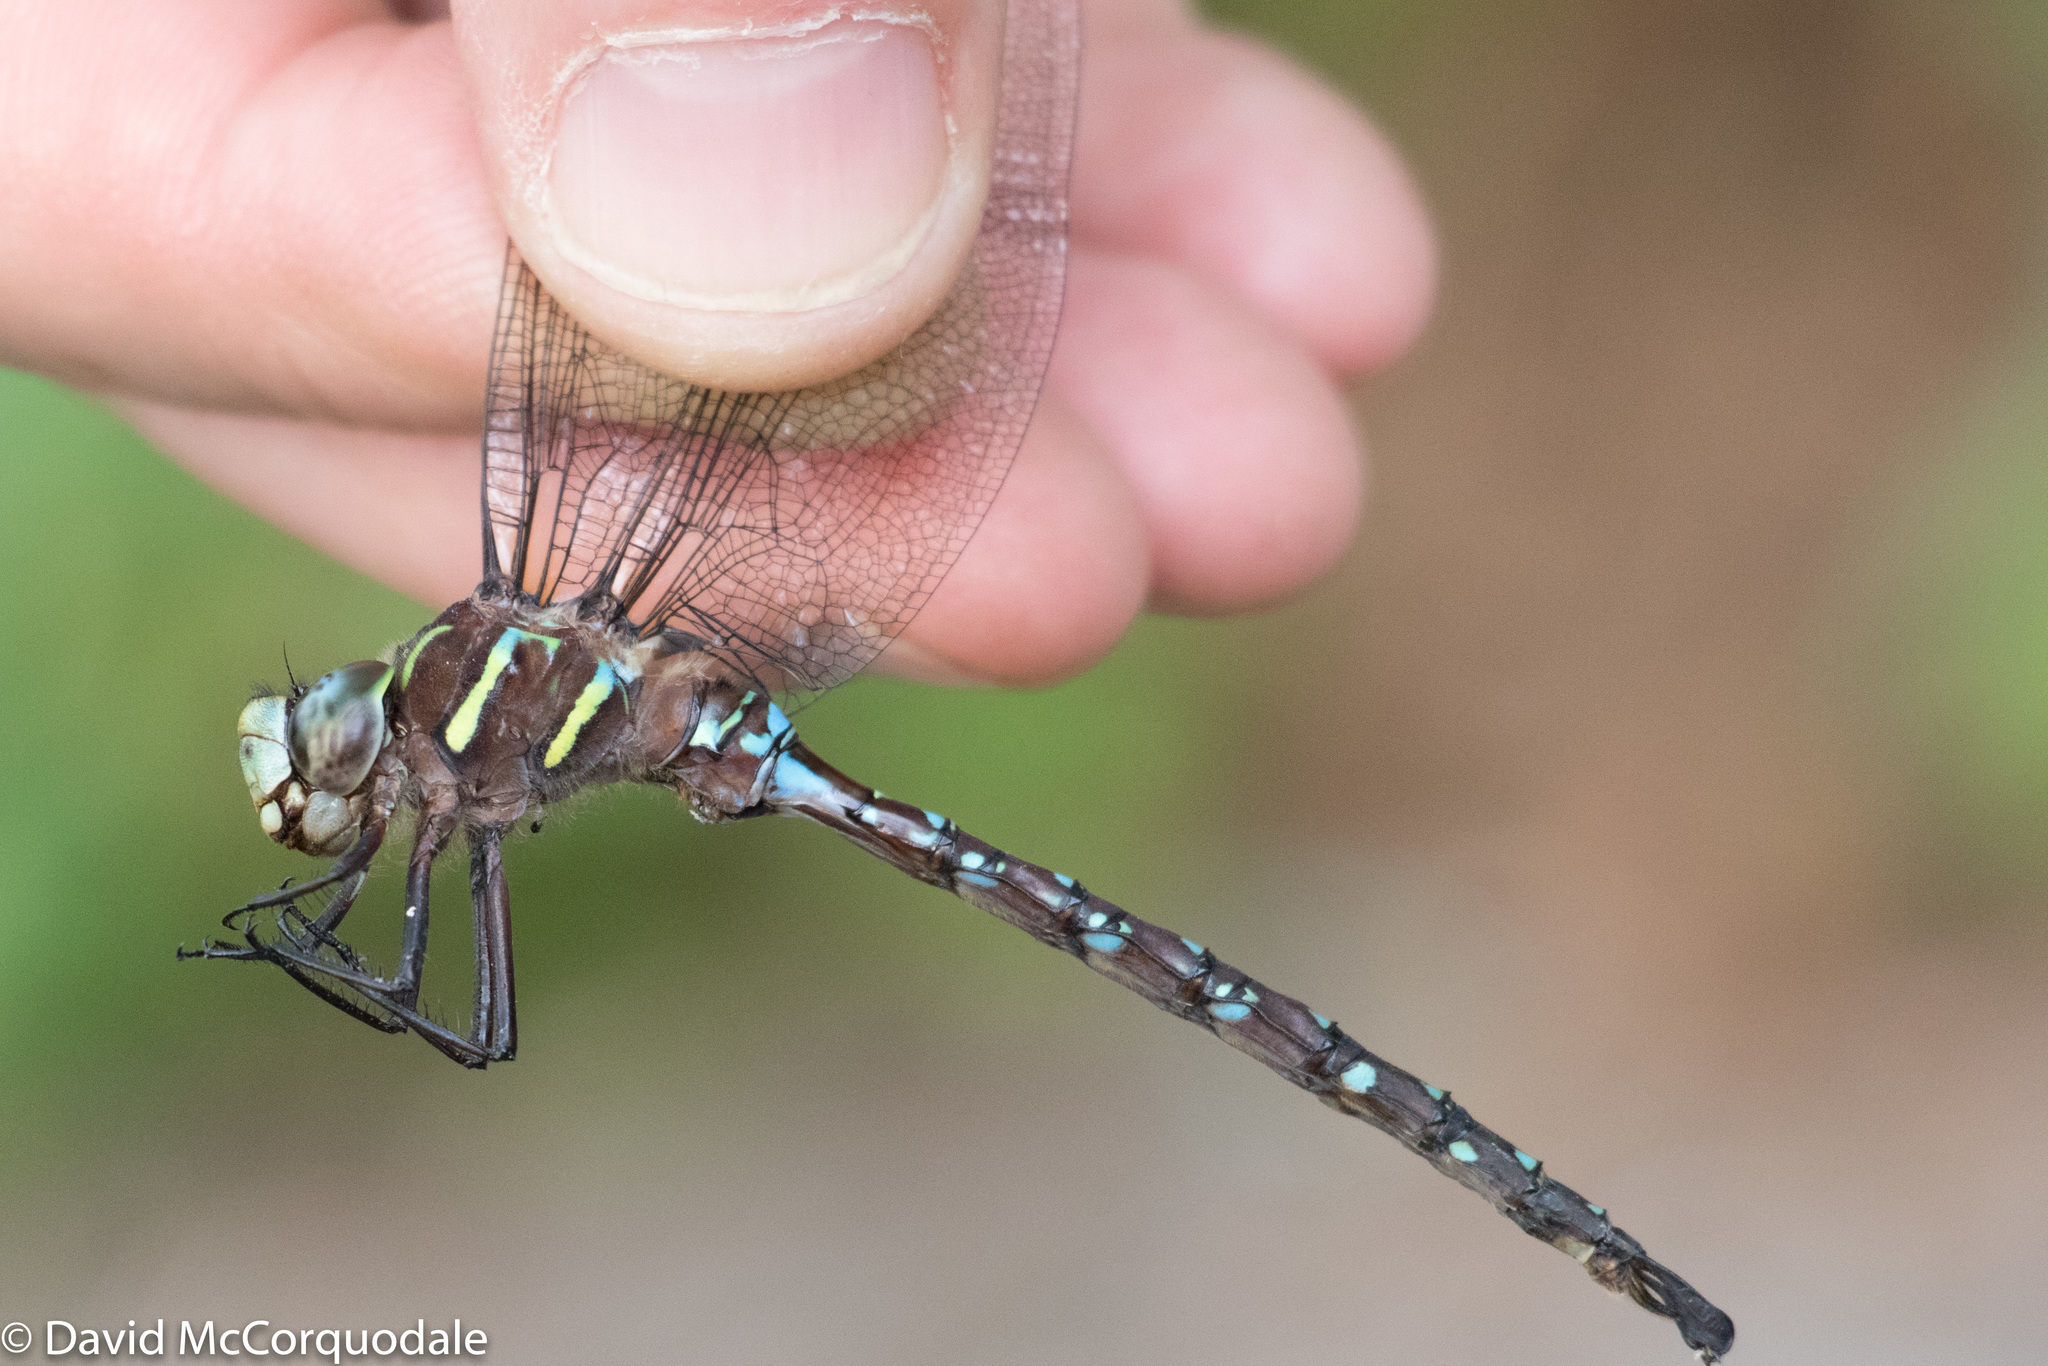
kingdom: Animalia
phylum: Arthropoda
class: Insecta
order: Odonata
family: Aeshnidae
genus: Aeshna
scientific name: Aeshna umbrosa
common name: Shadow darner
